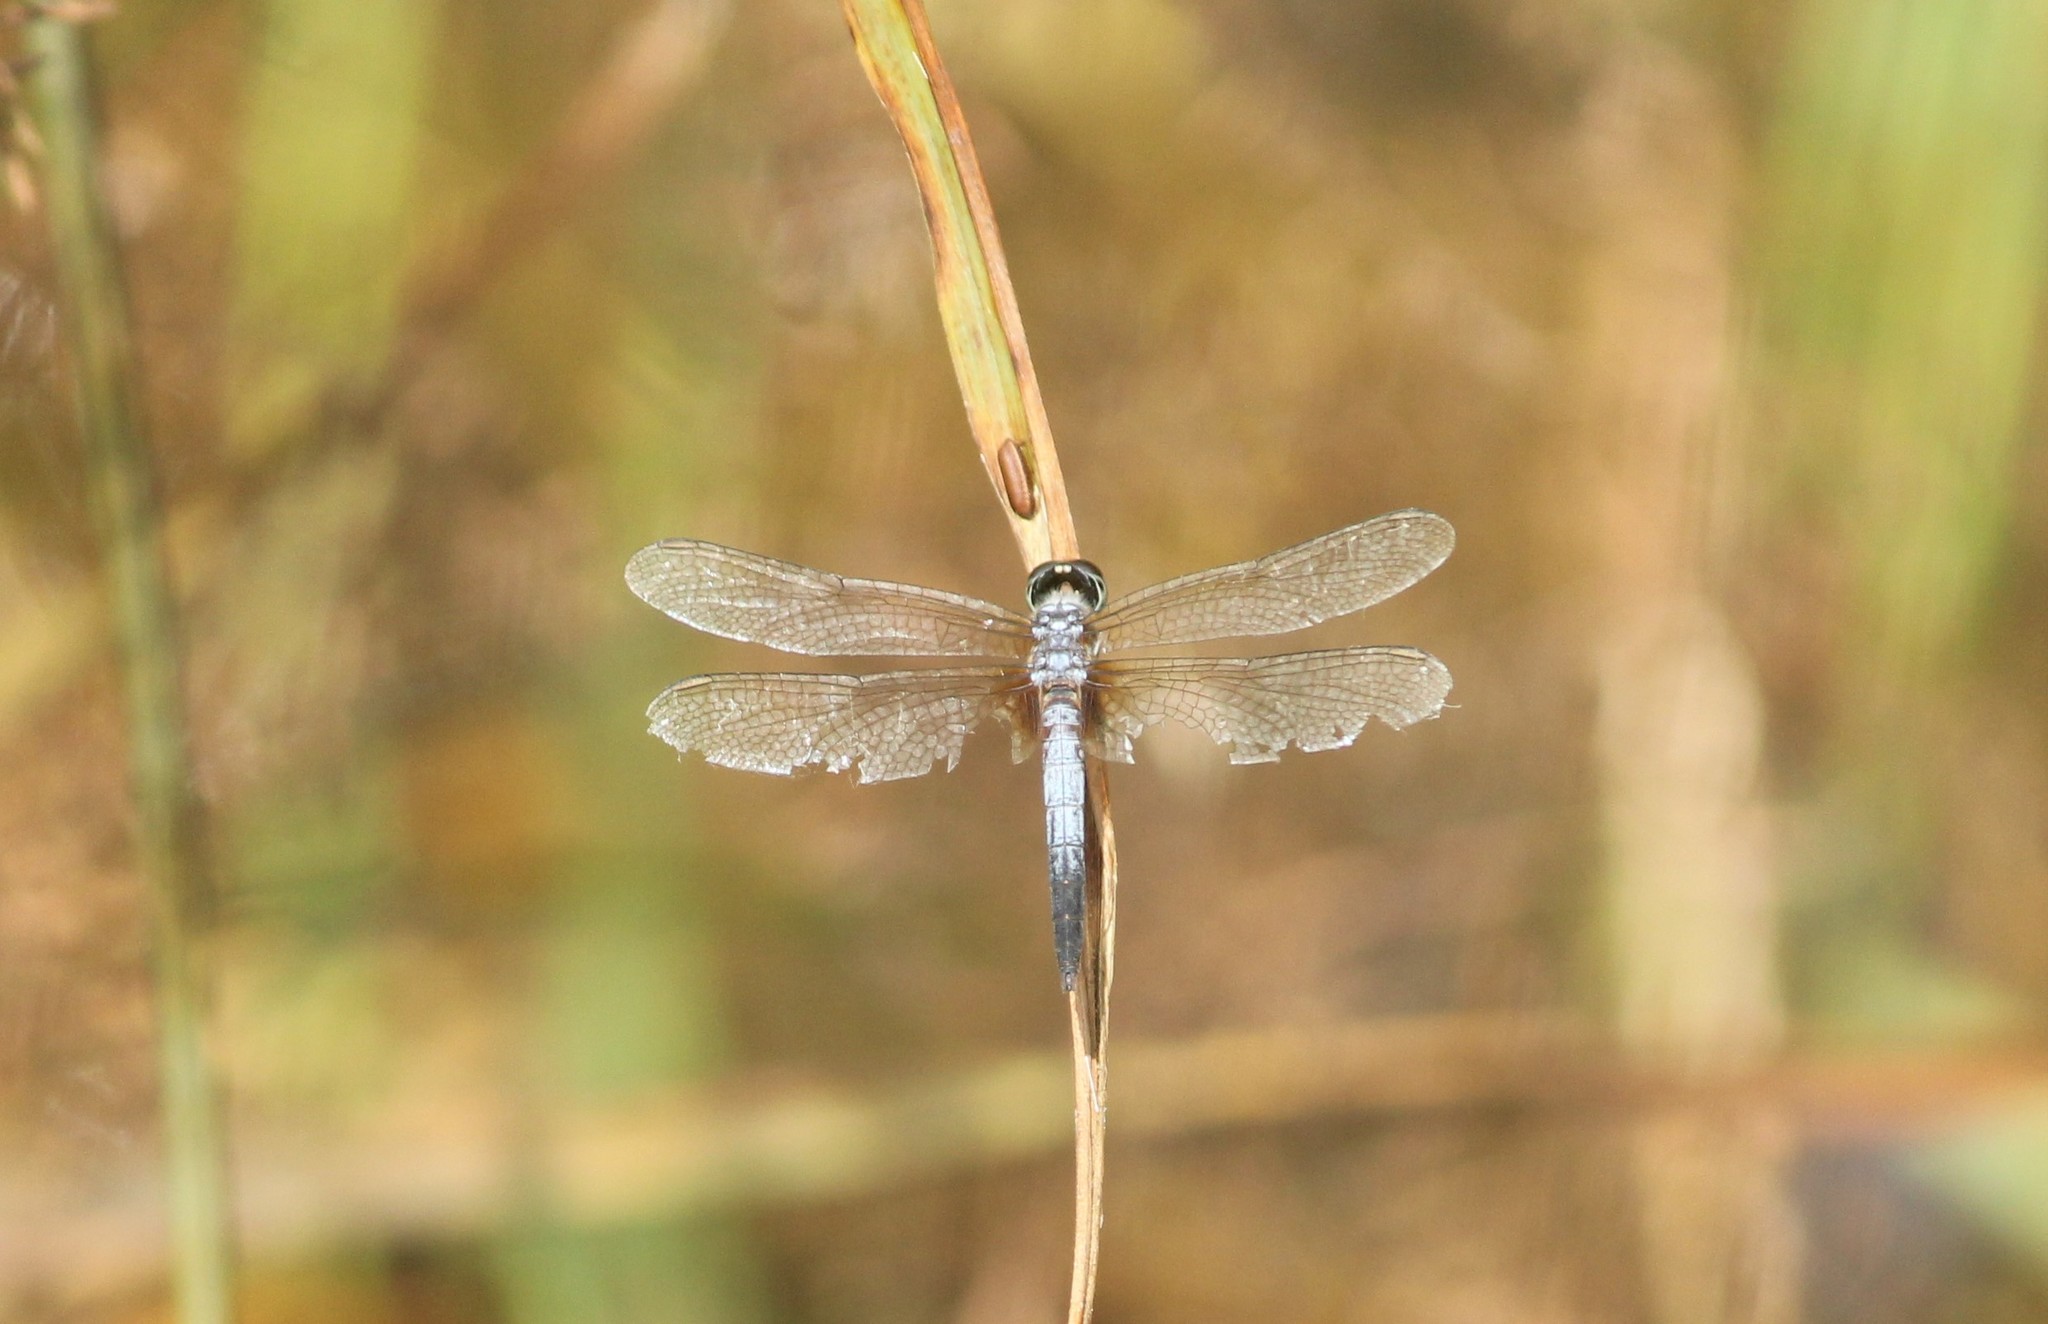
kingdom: Animalia
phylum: Arthropoda
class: Insecta
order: Odonata
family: Libellulidae
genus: Brachydiplax
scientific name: Brachydiplax chalybea
